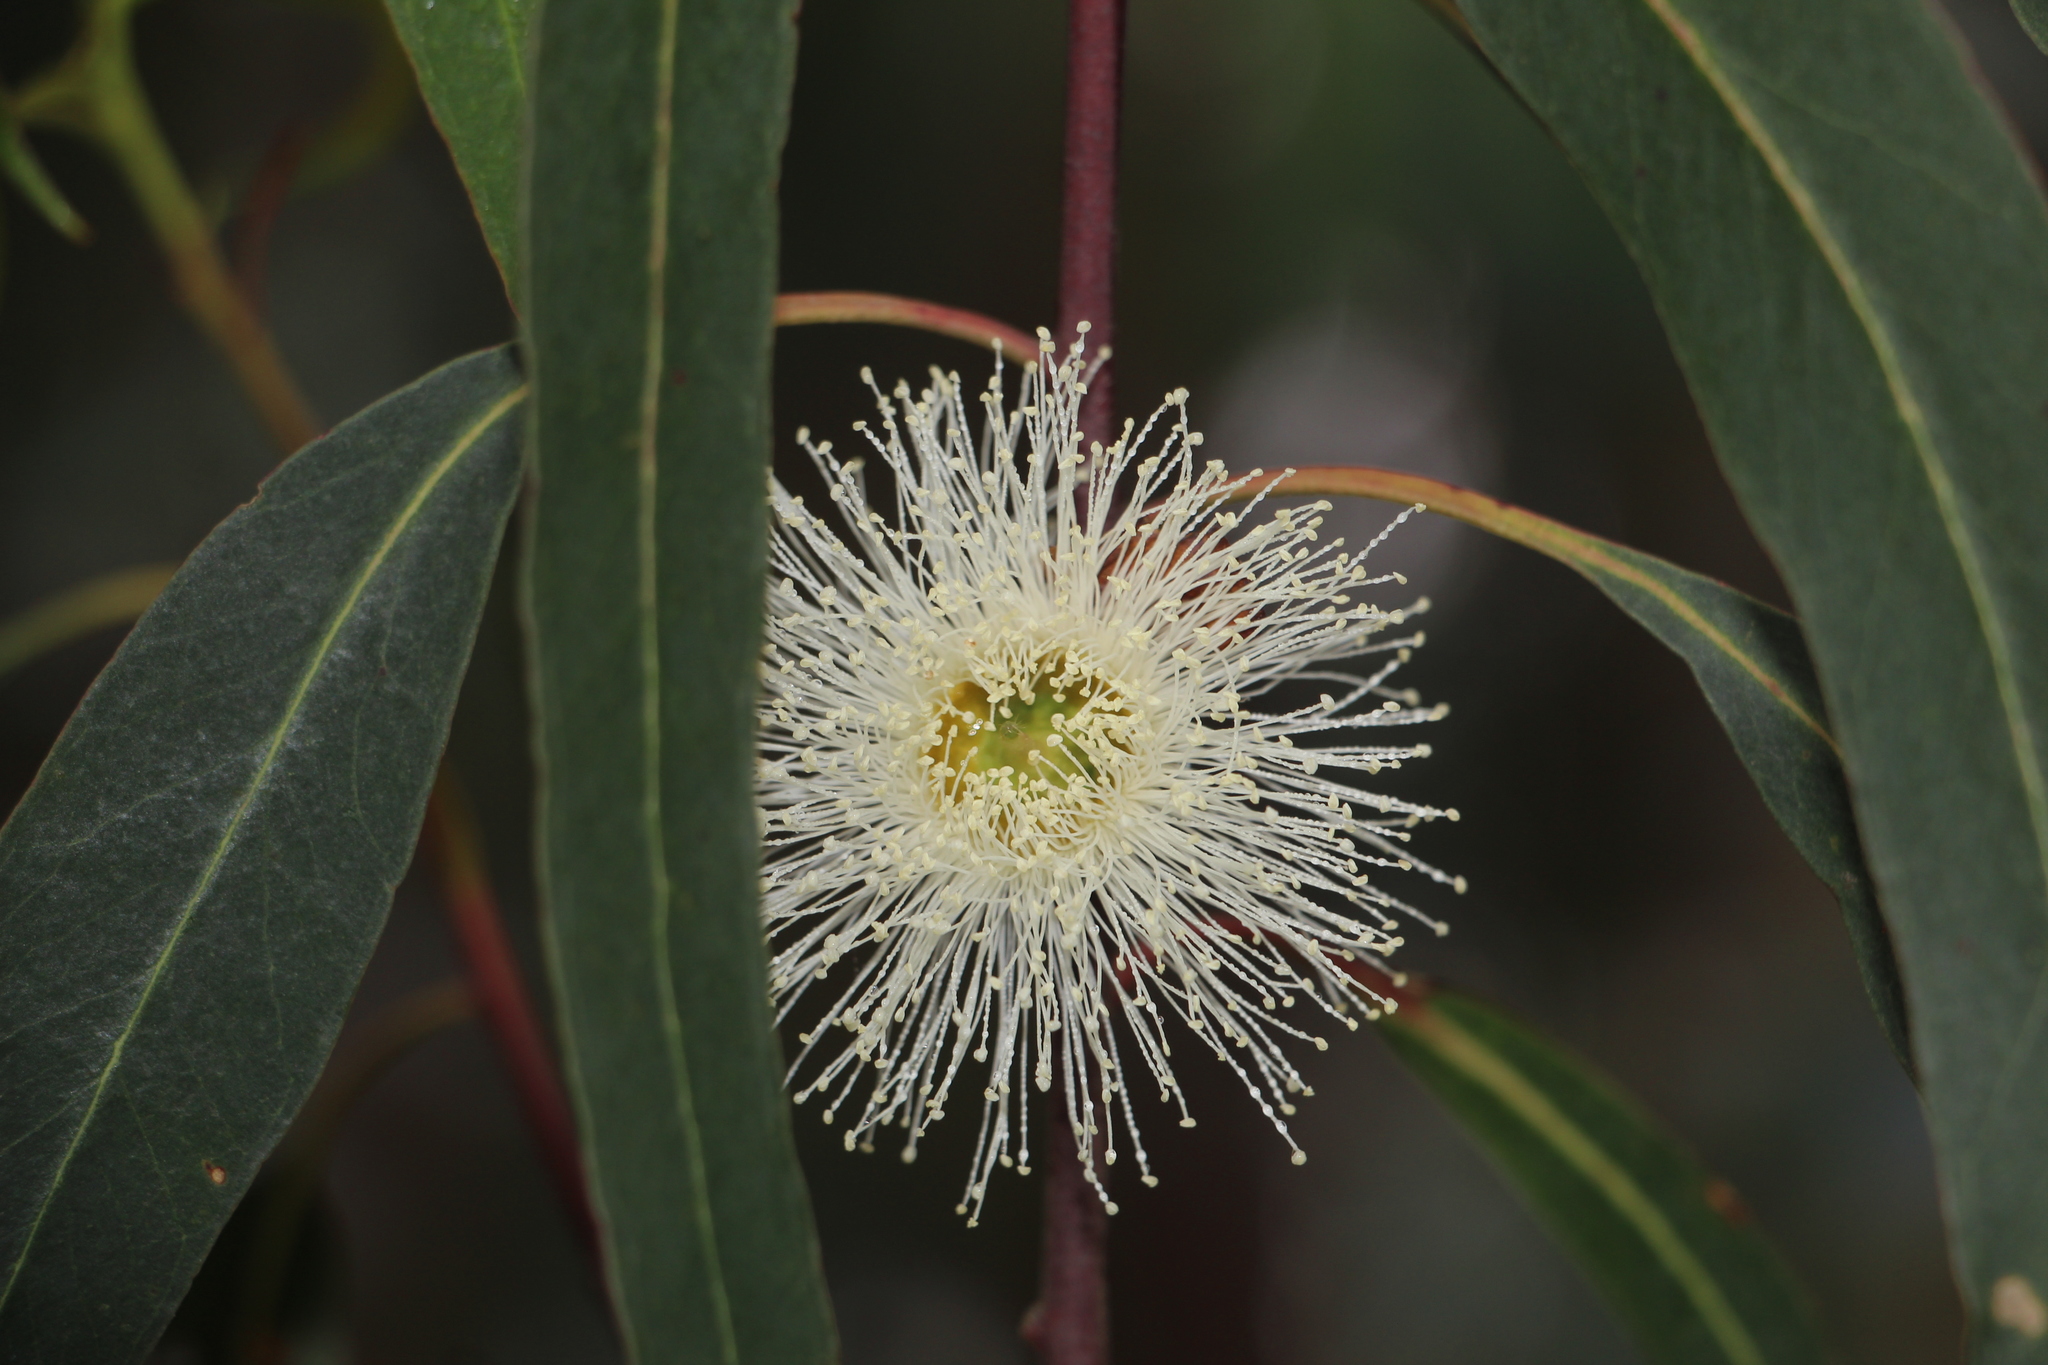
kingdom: Plantae
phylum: Tracheophyta
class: Magnoliopsida
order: Myrtales
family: Myrtaceae
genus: Eucalyptus
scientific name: Eucalyptus globulus
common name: Southern blue-gum
